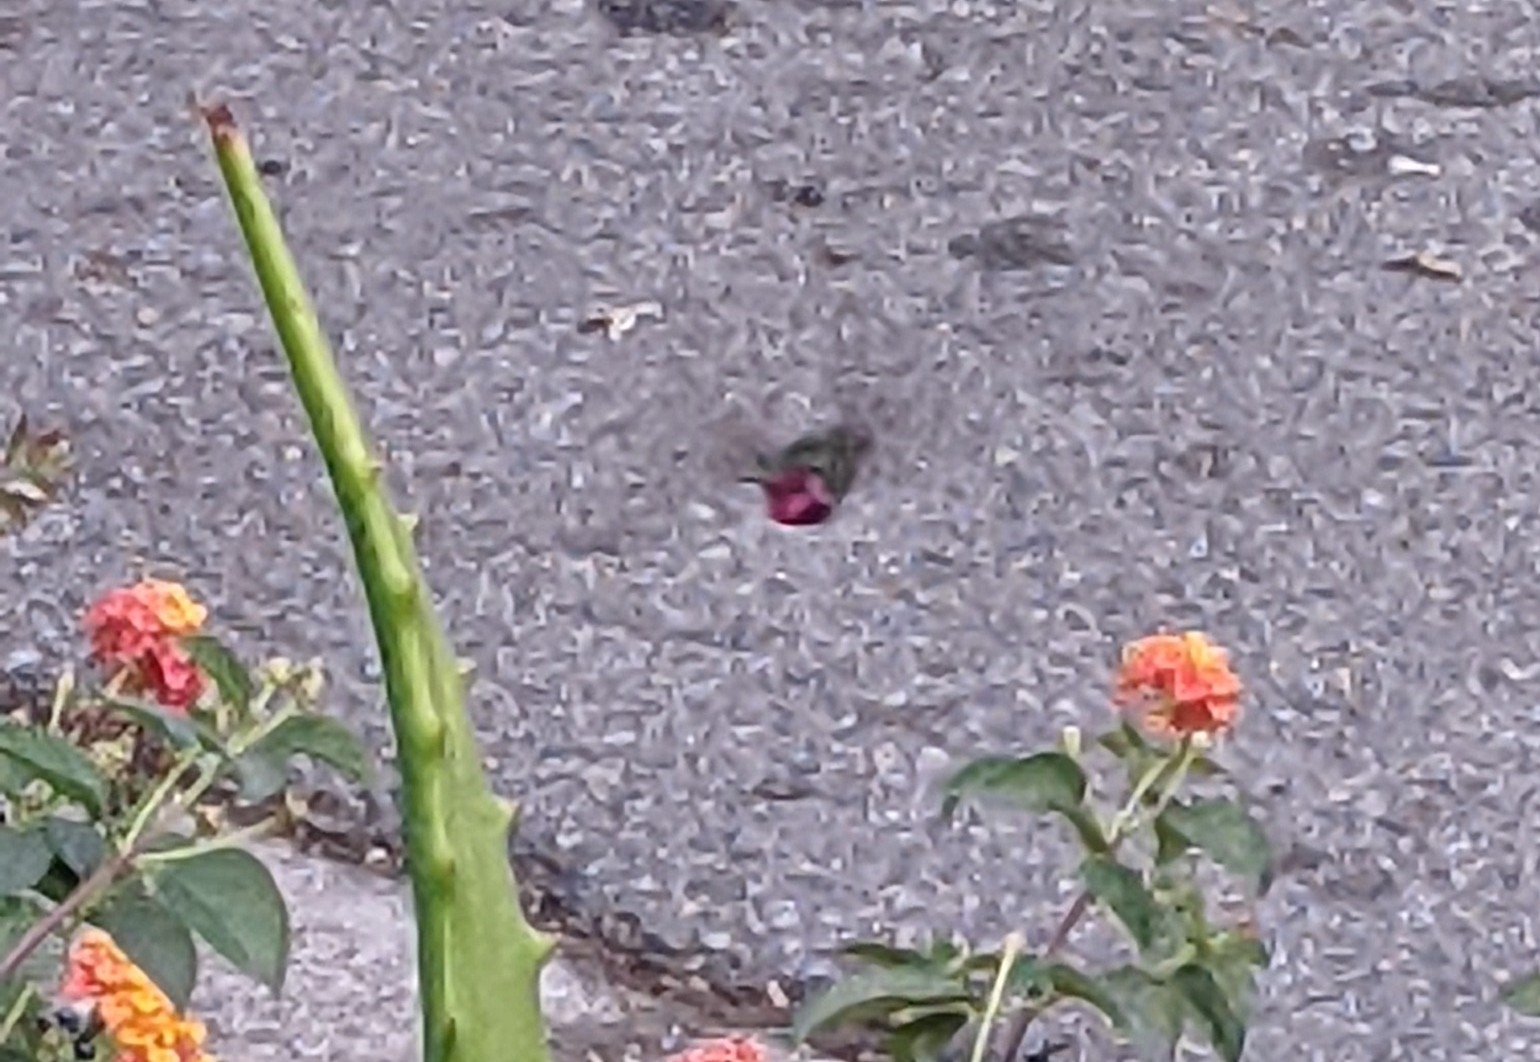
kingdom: Animalia
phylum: Chordata
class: Aves
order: Apodiformes
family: Trochilidae
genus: Calypte
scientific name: Calypte anna
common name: Anna's hummingbird
